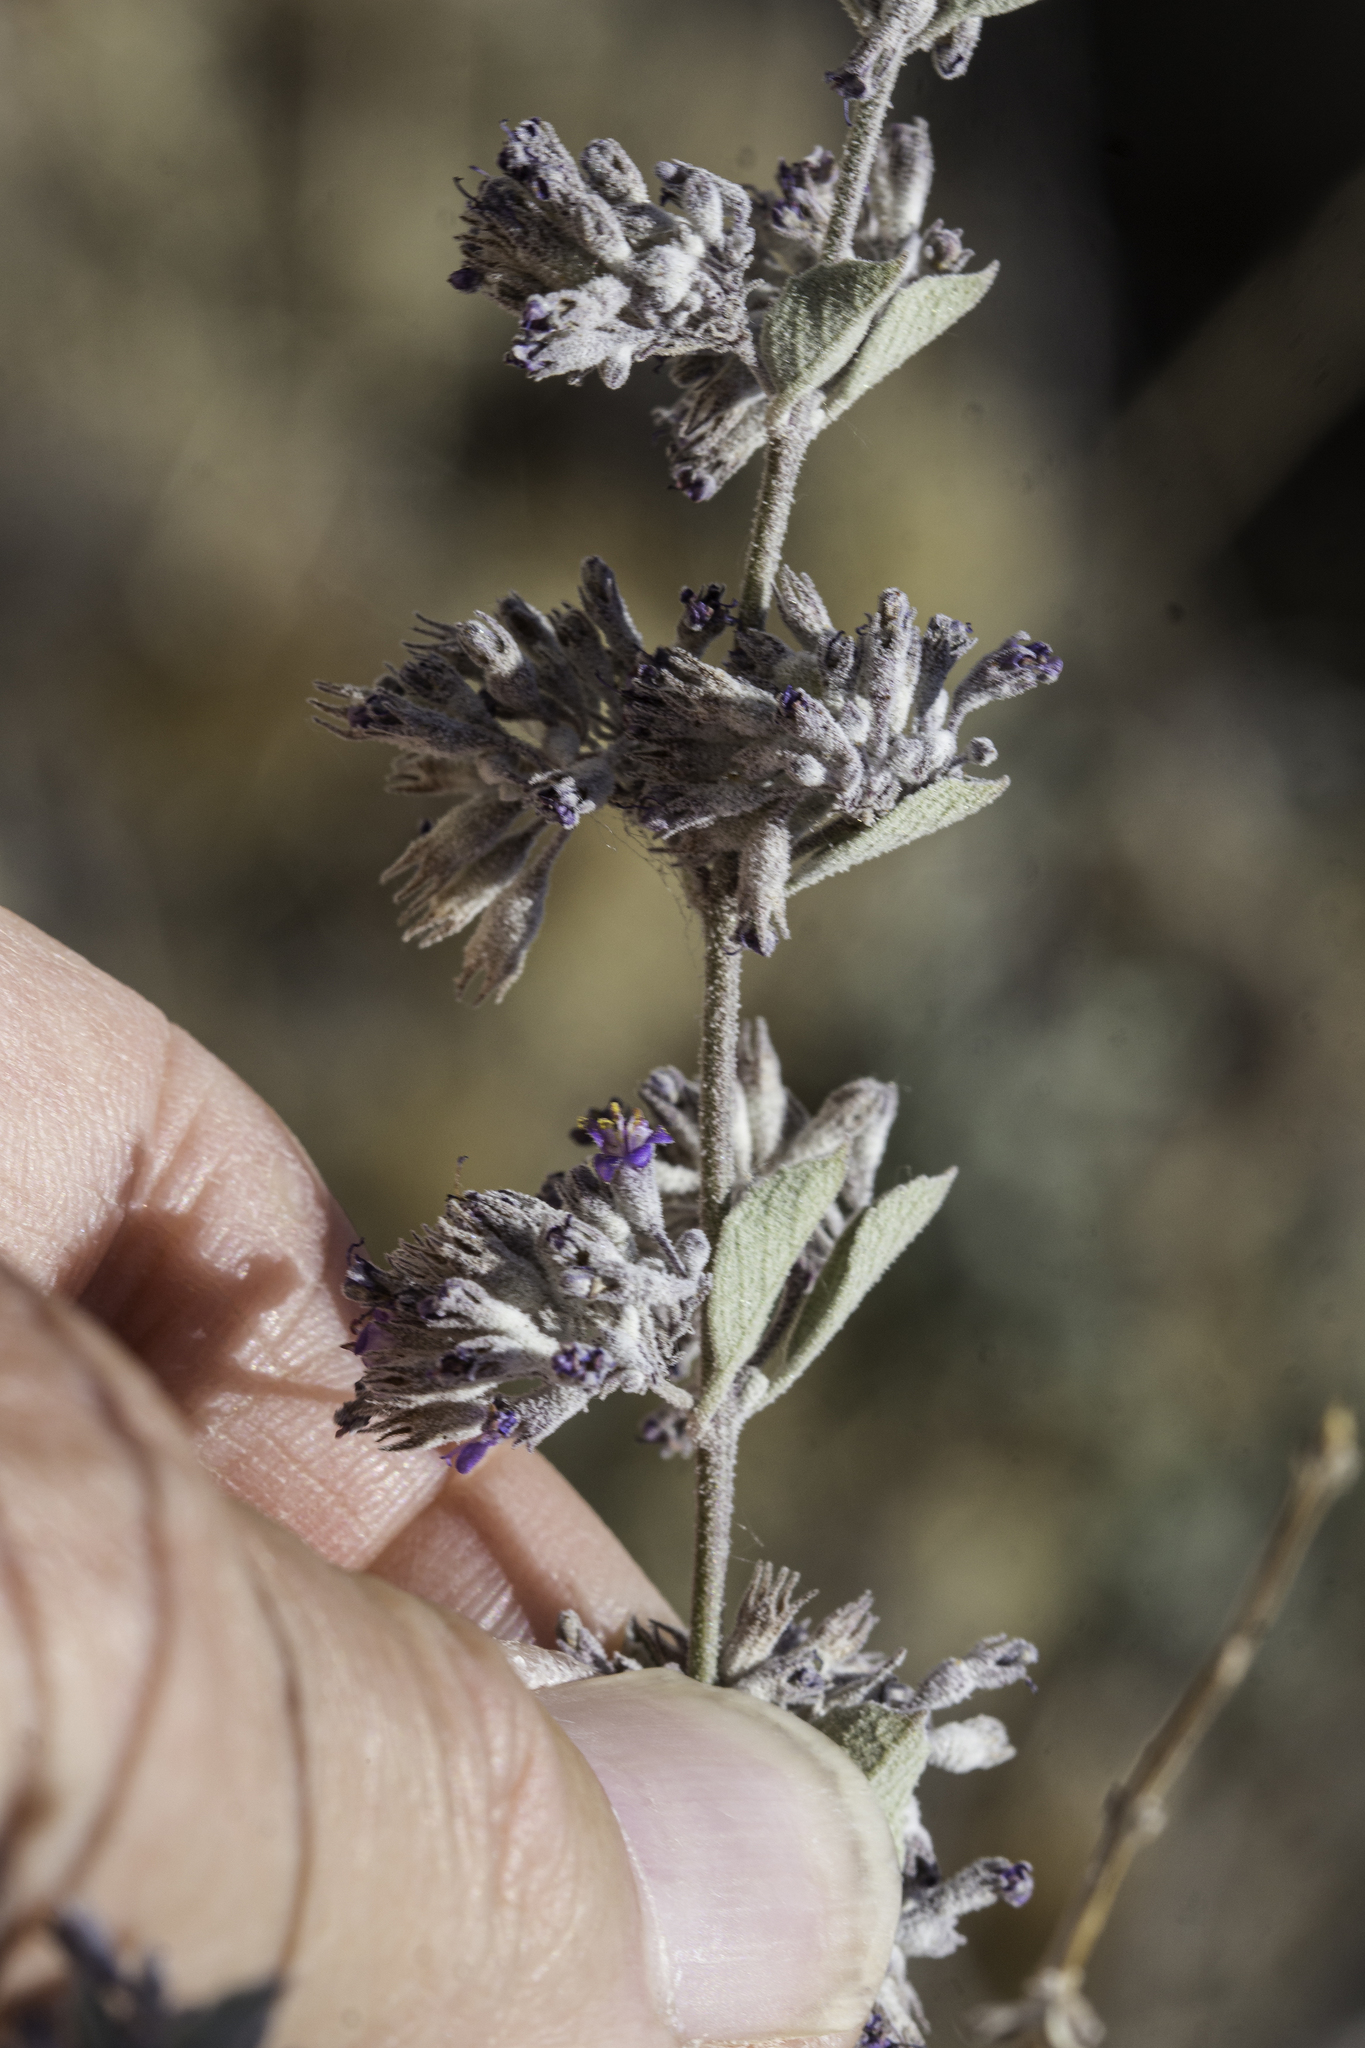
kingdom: Plantae
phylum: Tracheophyta
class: Magnoliopsida
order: Lamiales
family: Lamiaceae
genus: Condea
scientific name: Condea emoryi
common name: Chia
